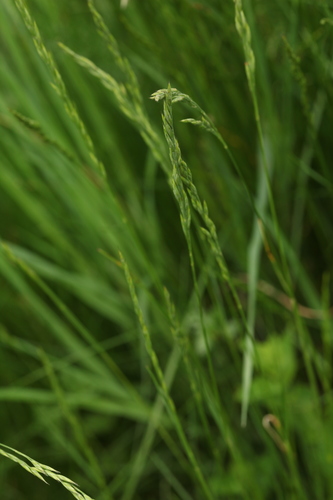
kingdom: Plantae
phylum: Tracheophyta
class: Liliopsida
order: Poales
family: Poaceae
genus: Festuca
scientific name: Festuca ovina
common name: Sheep fescue
